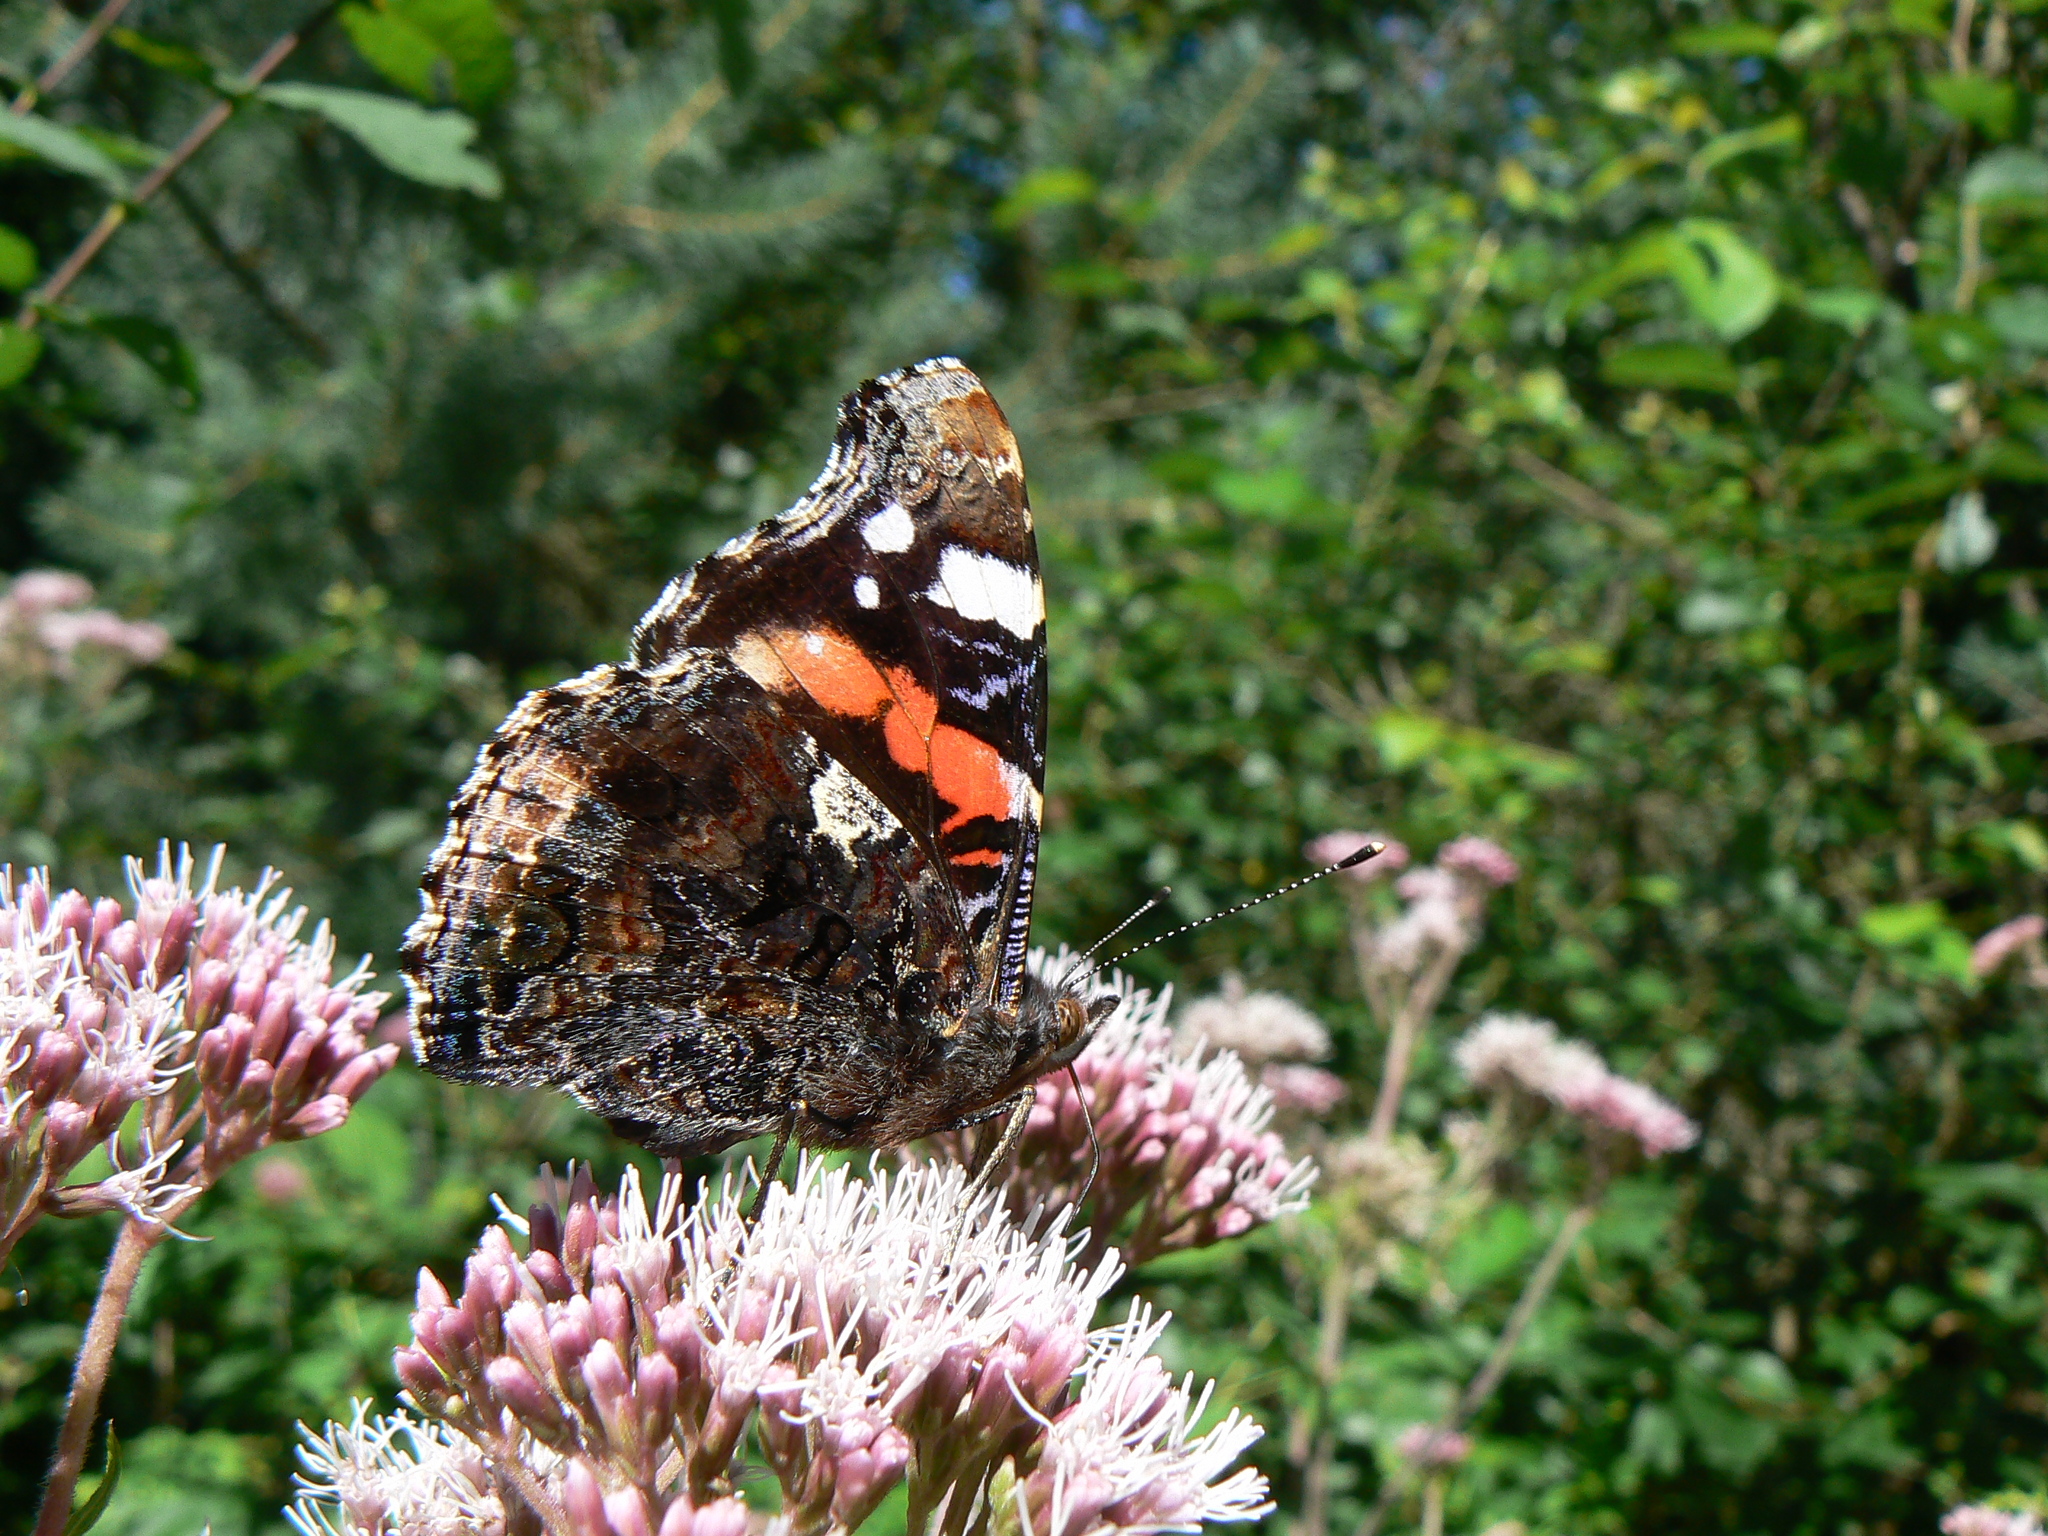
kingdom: Animalia
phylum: Arthropoda
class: Insecta
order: Lepidoptera
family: Nymphalidae
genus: Vanessa
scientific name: Vanessa atalanta
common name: Red admiral
